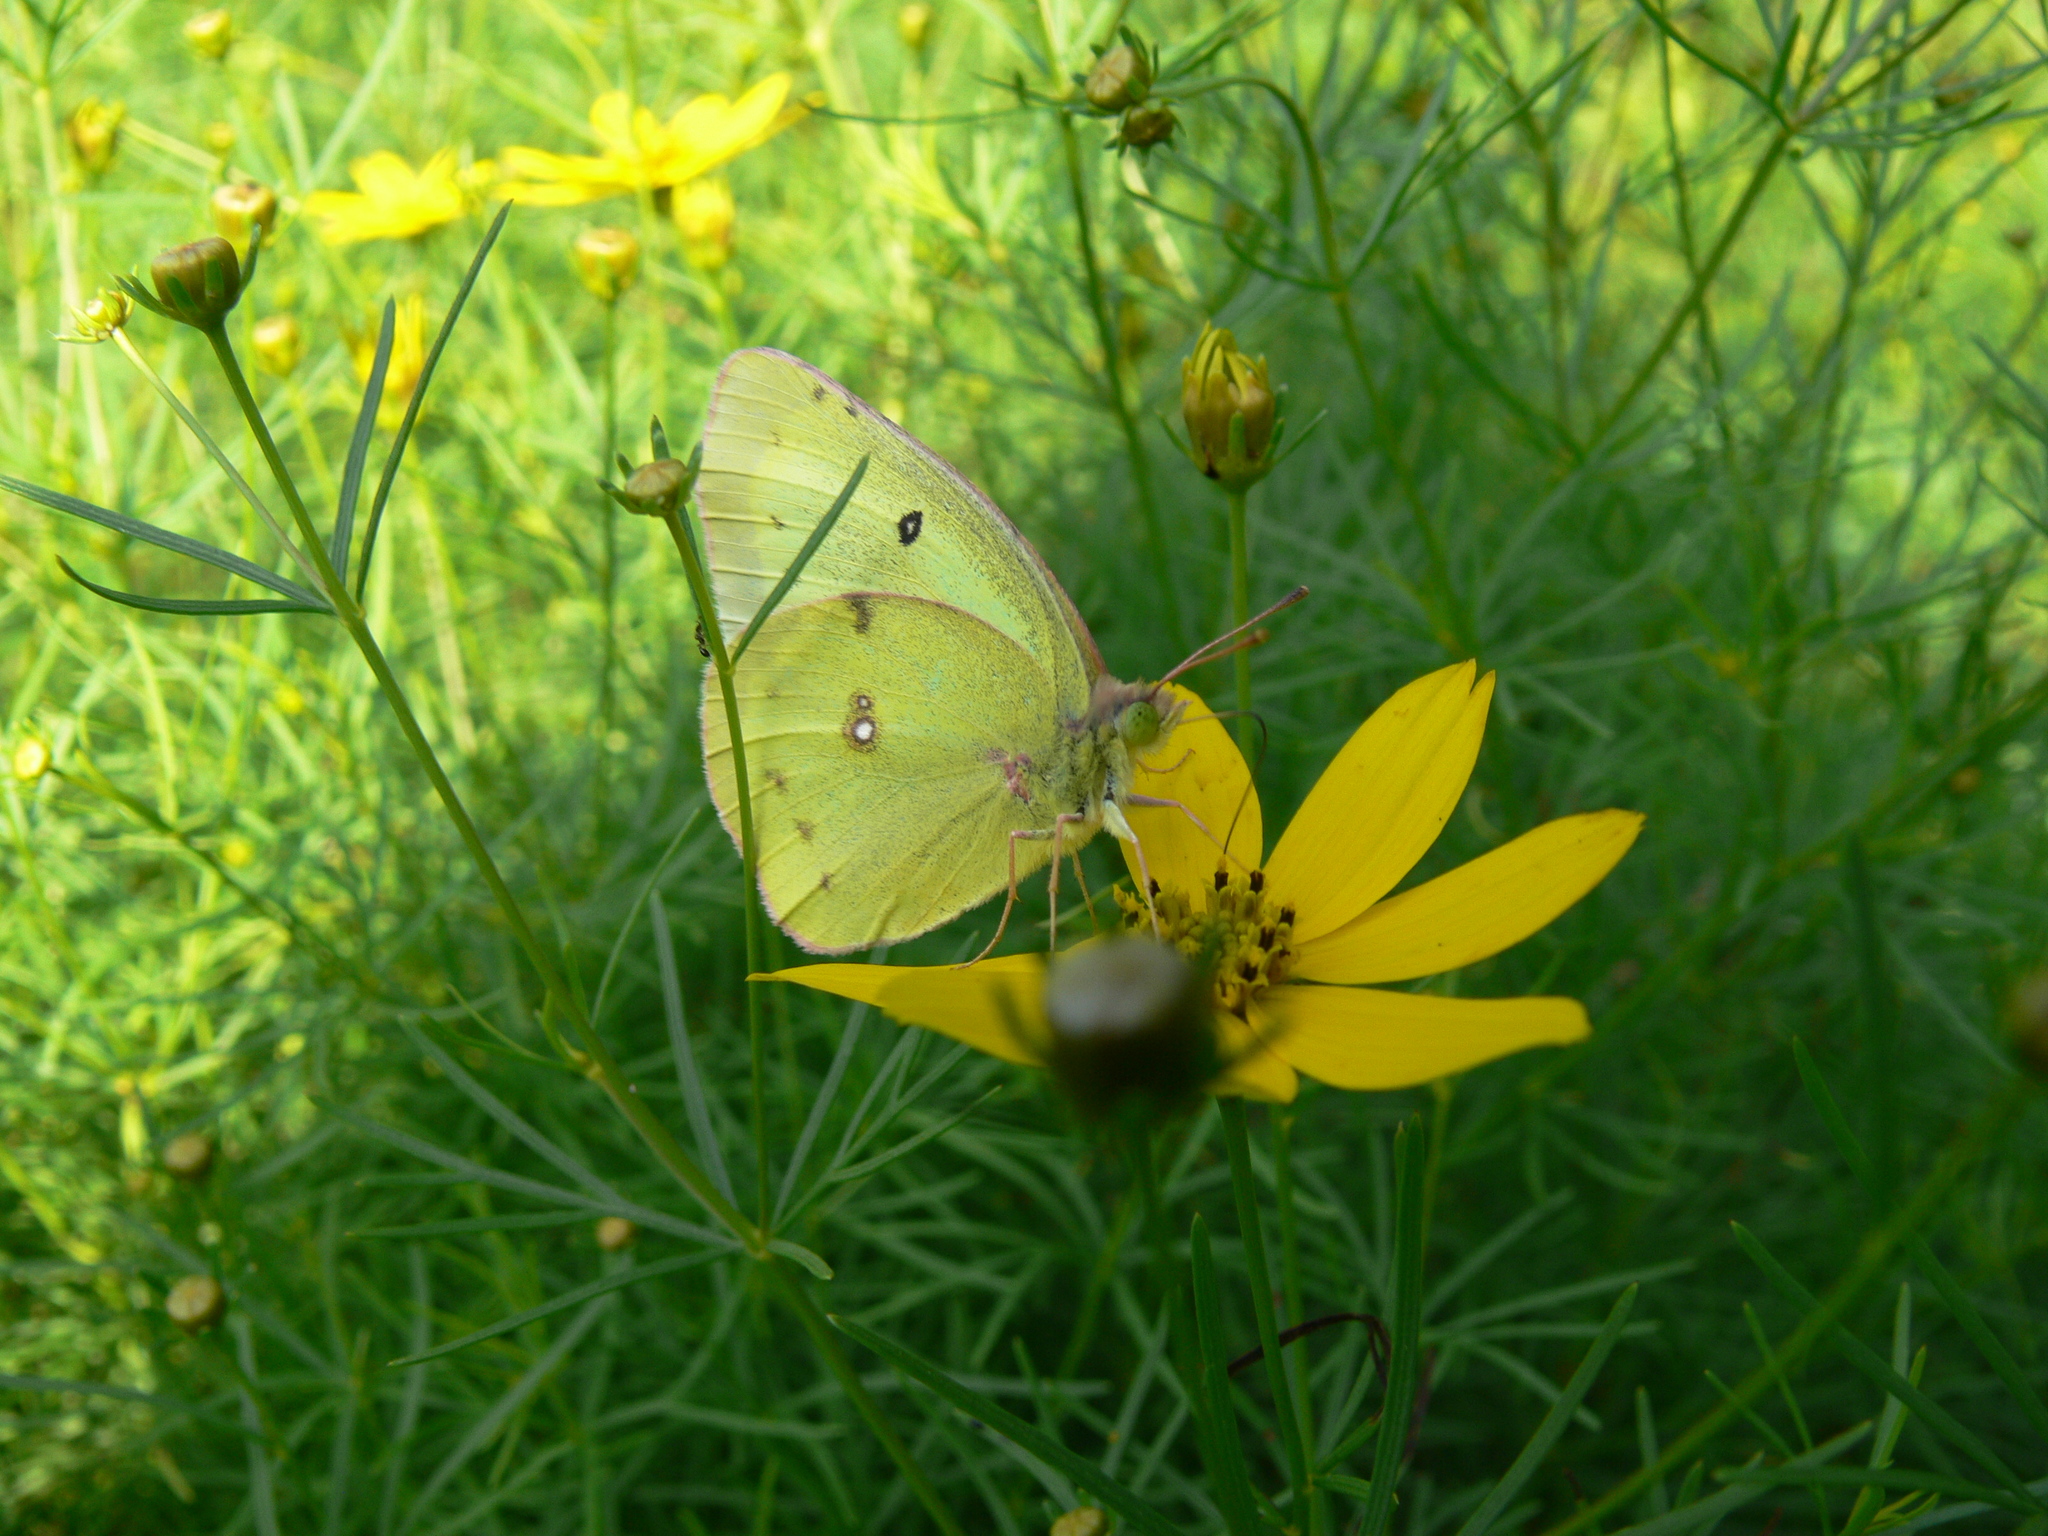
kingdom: Animalia
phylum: Arthropoda
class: Insecta
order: Lepidoptera
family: Pieridae
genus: Colias
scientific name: Colias philodice
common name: Clouded sulphur
